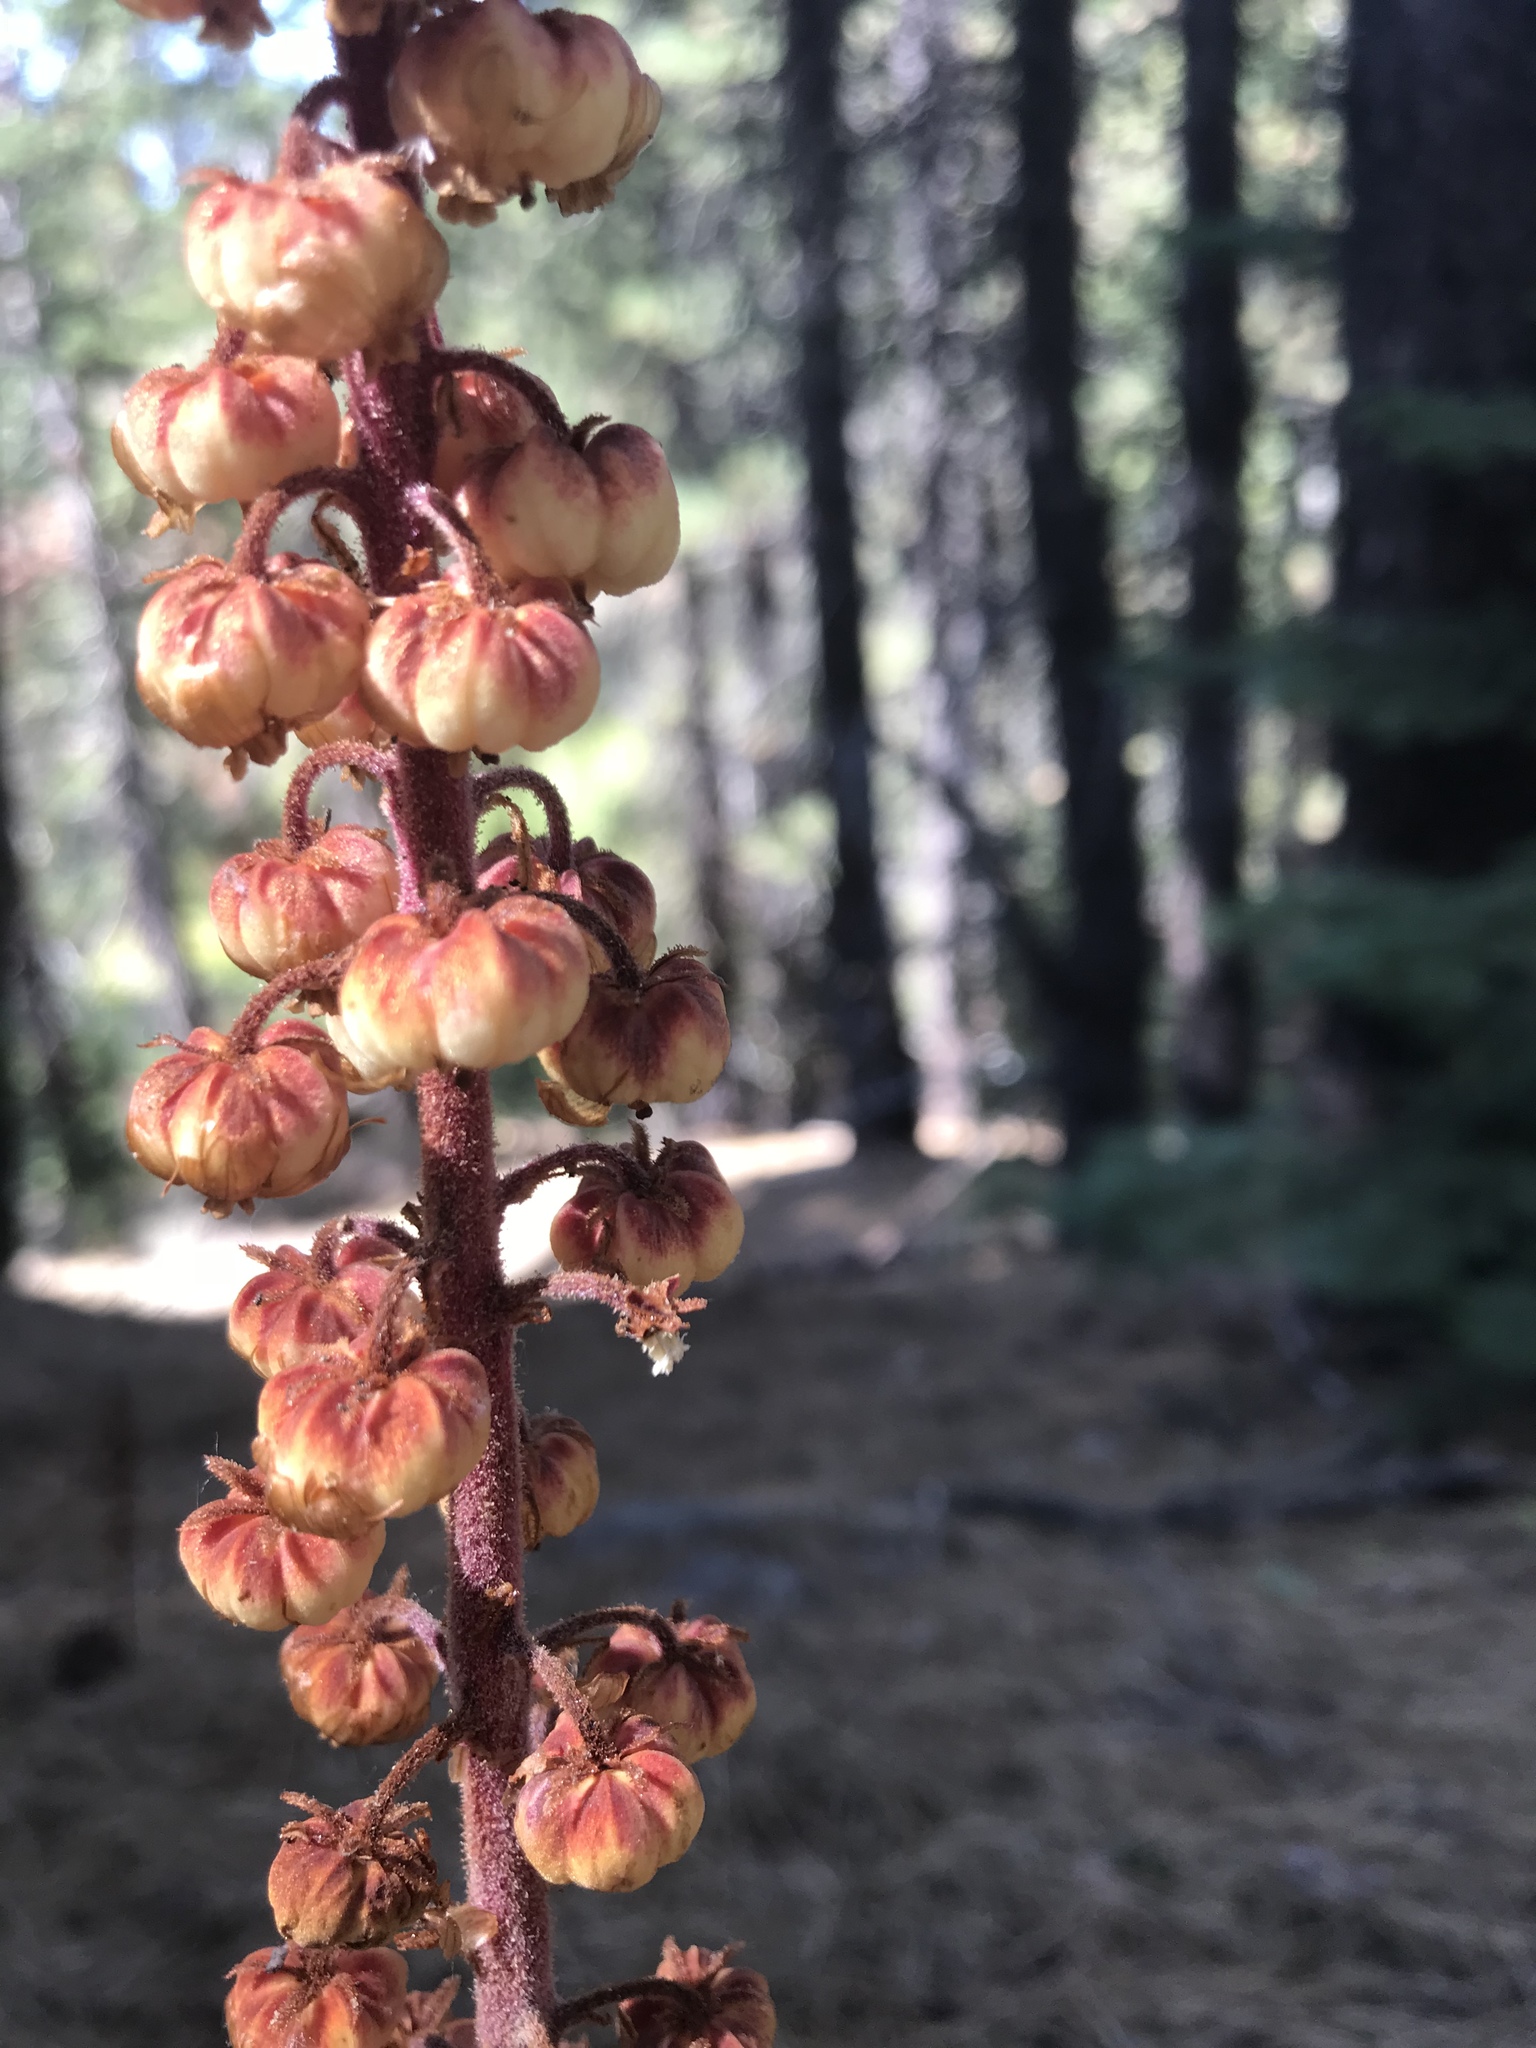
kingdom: Plantae
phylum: Tracheophyta
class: Magnoliopsida
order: Ericales
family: Ericaceae
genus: Pterospora
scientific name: Pterospora andromedea
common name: Giant bird's-nest
